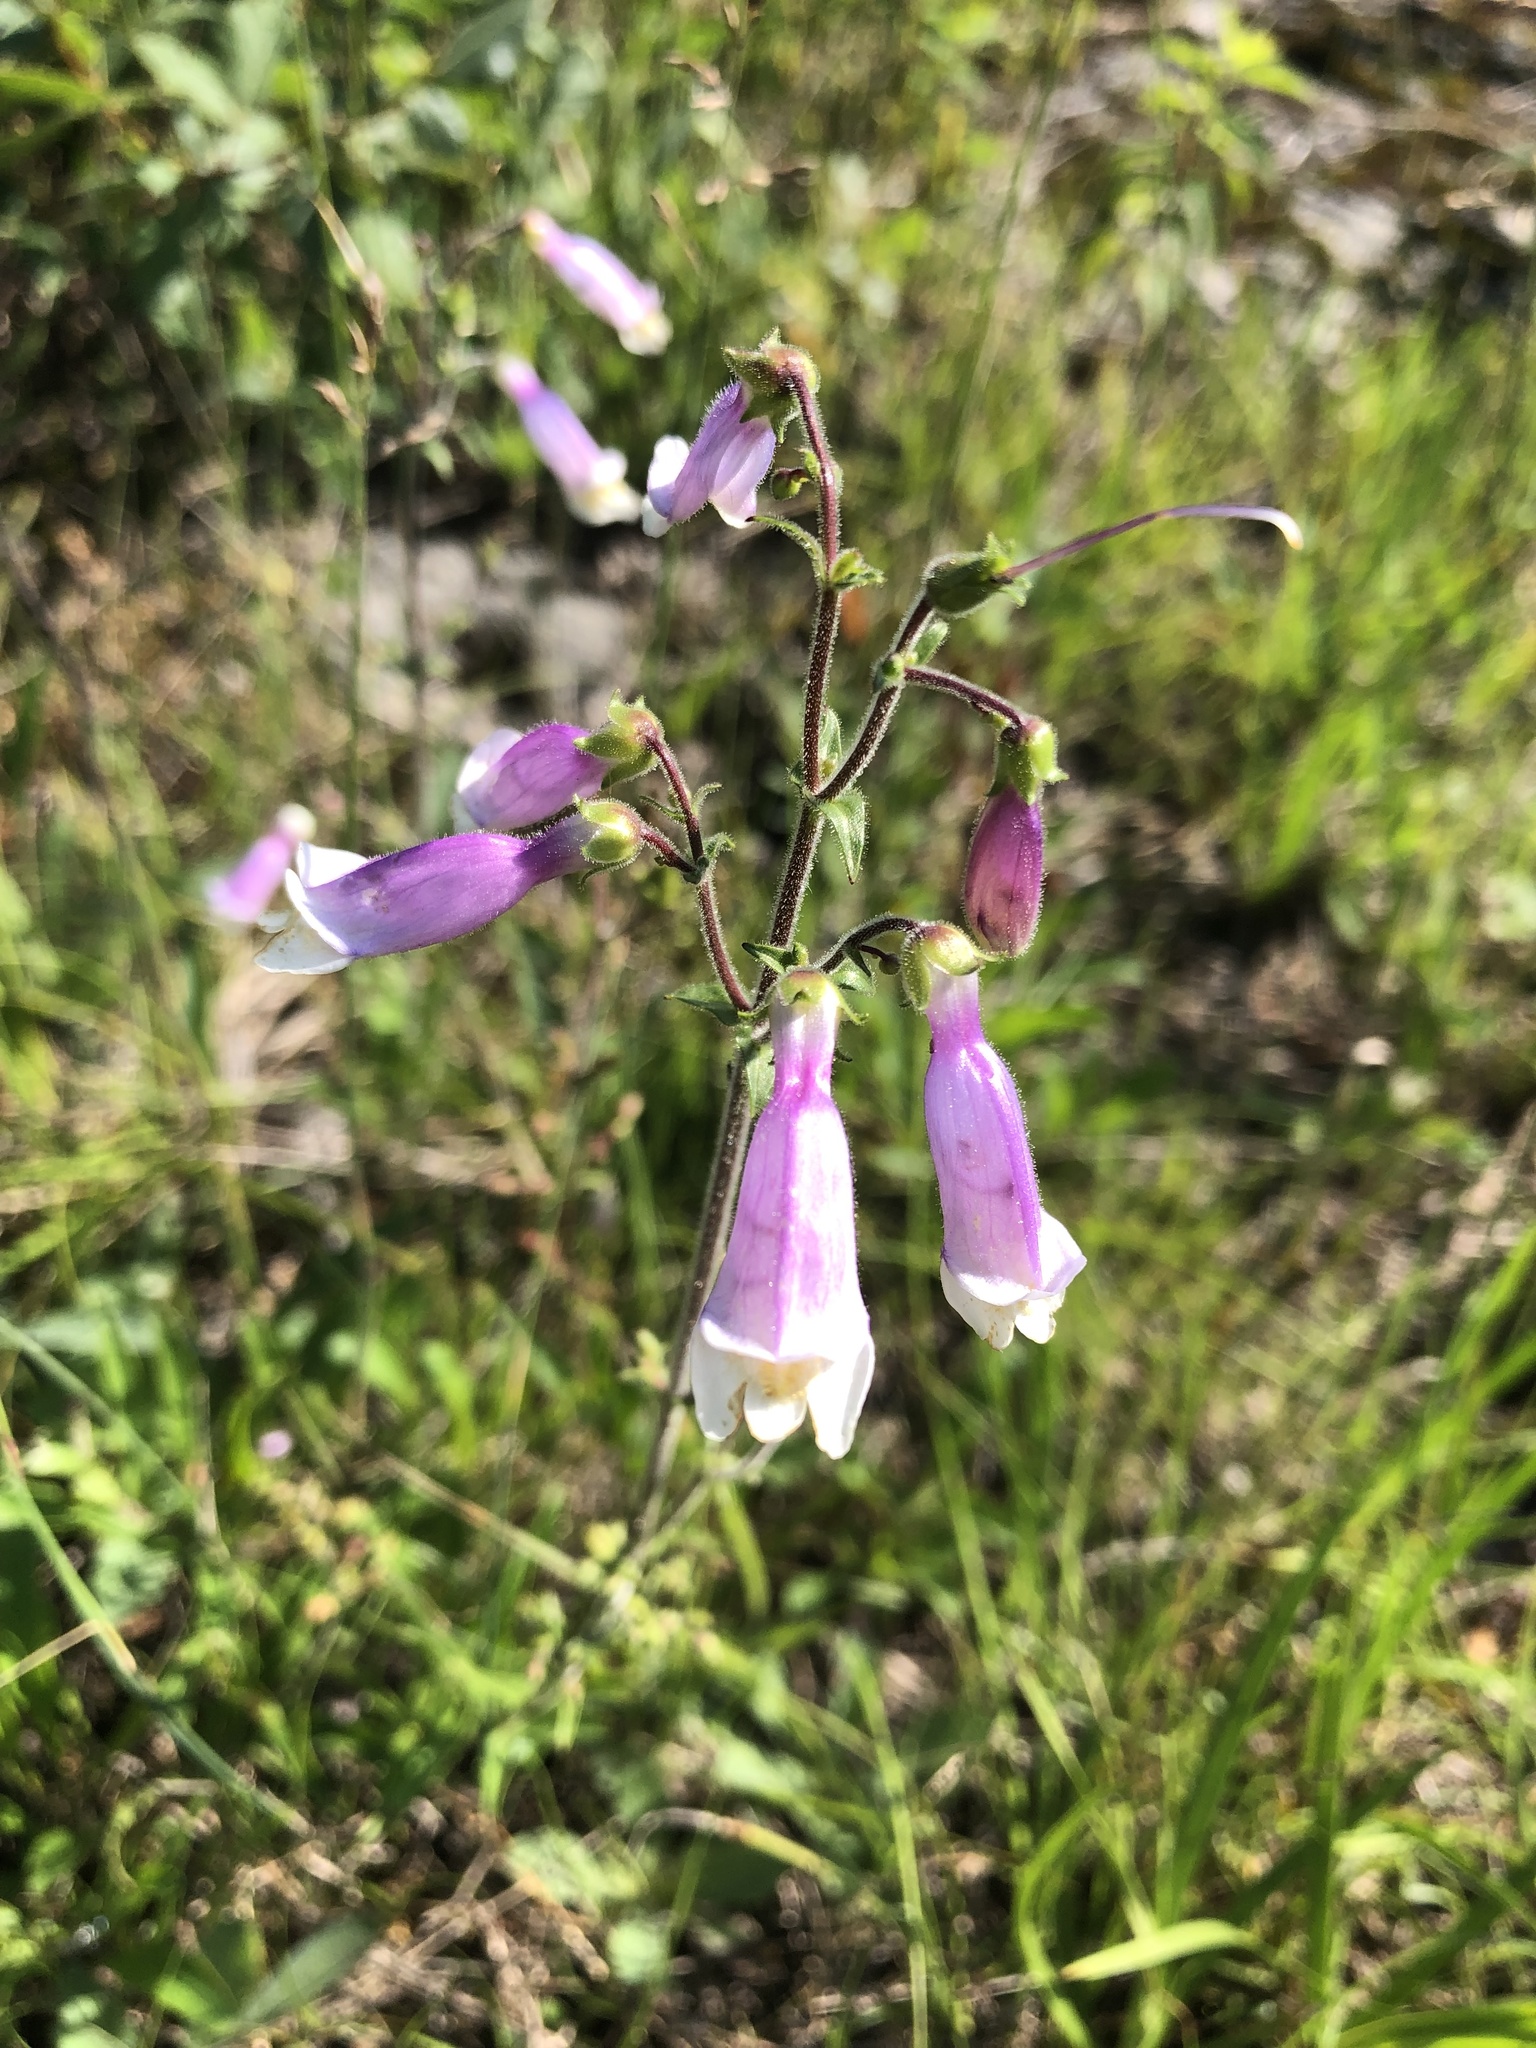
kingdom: Plantae
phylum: Tracheophyta
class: Magnoliopsida
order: Lamiales
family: Plantaginaceae
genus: Penstemon
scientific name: Penstemon hirsutus
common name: Hairy beardtongue
